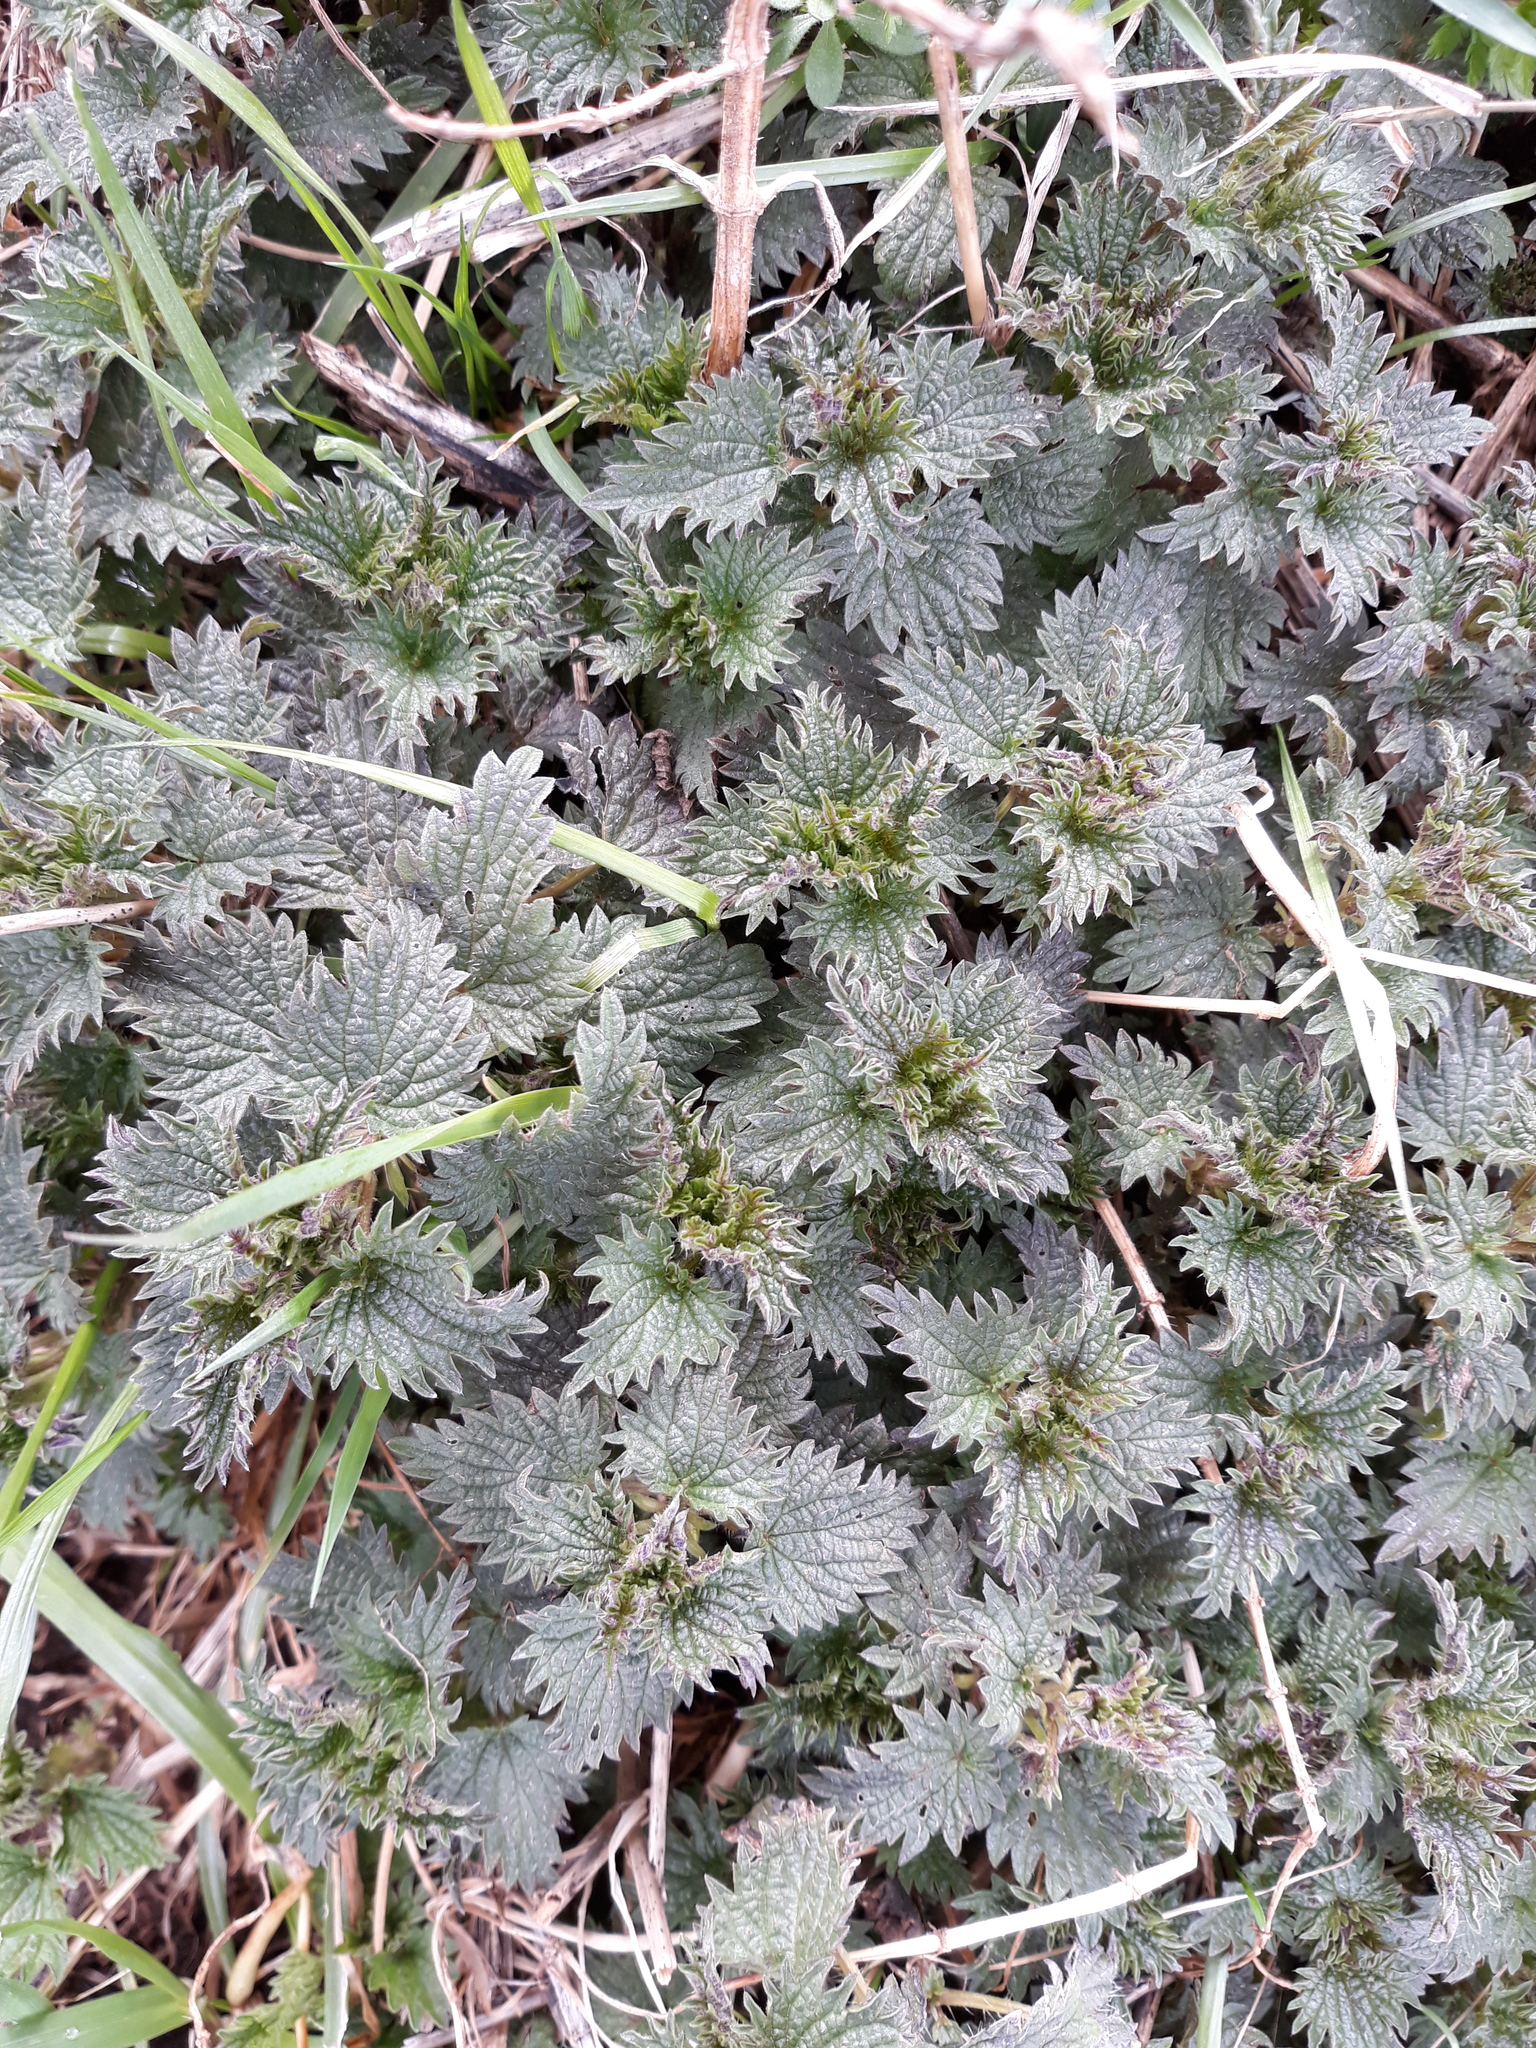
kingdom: Plantae
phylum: Tracheophyta
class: Magnoliopsida
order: Rosales
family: Urticaceae
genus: Urtica
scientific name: Urtica dioica
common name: Common nettle
